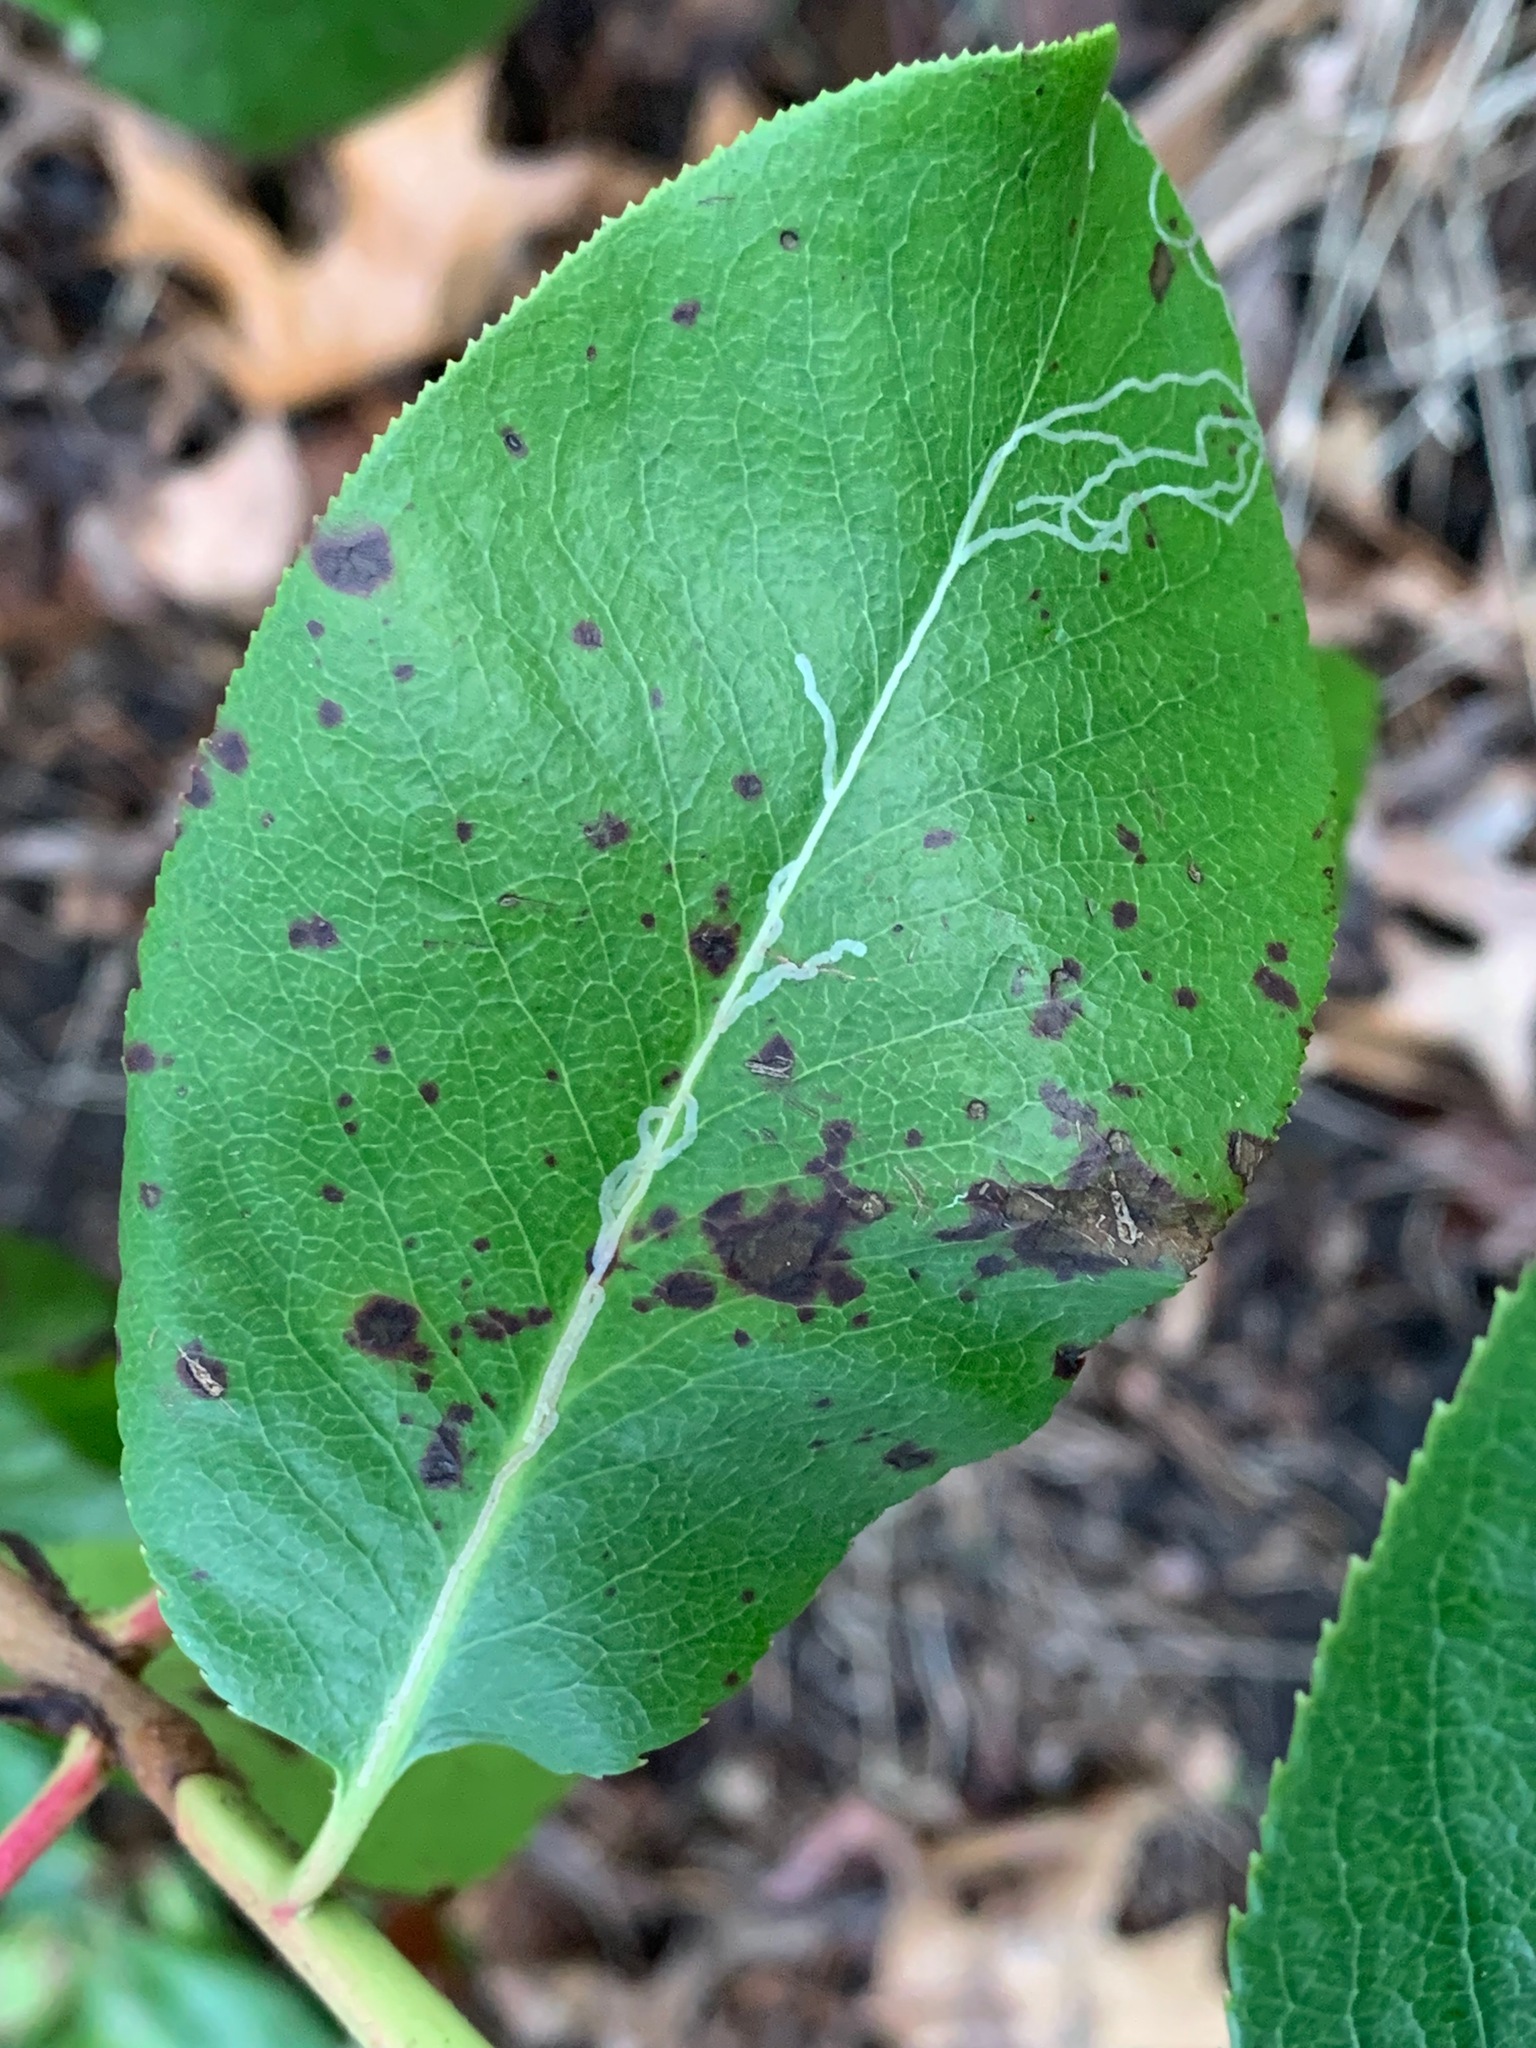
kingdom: Animalia
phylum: Arthropoda
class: Insecta
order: Lepidoptera
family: Gracillariidae
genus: Marmara
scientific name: Marmara arbutiella
